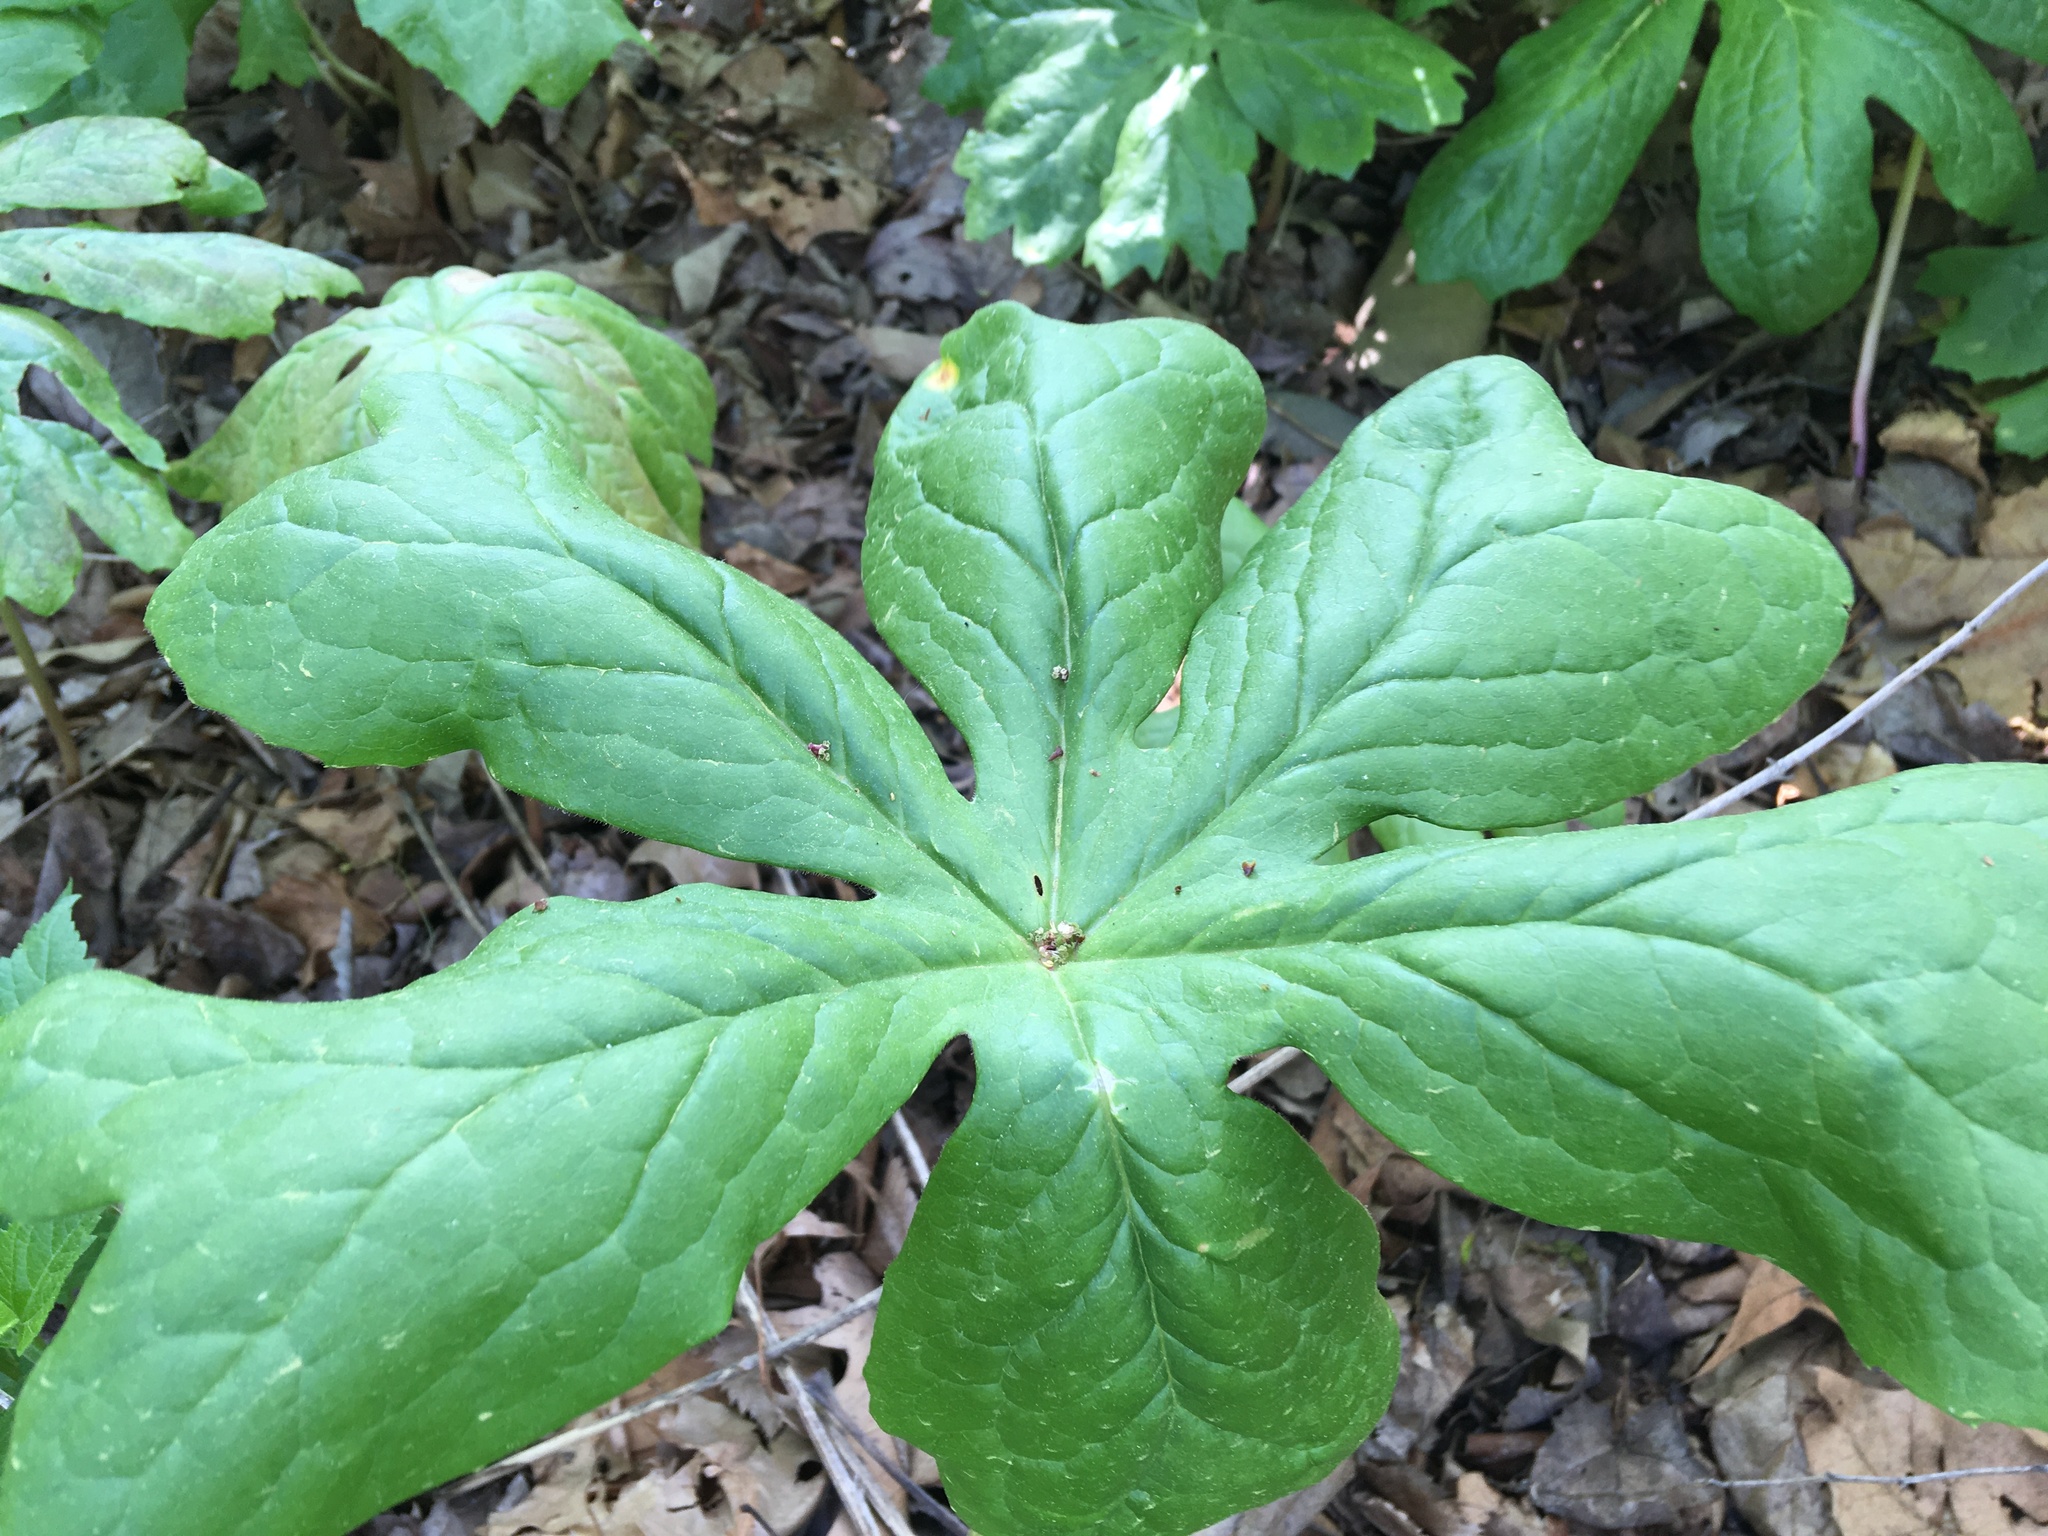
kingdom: Plantae
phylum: Tracheophyta
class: Magnoliopsida
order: Ranunculales
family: Berberidaceae
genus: Podophyllum
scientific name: Podophyllum peltatum
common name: Wild mandrake
